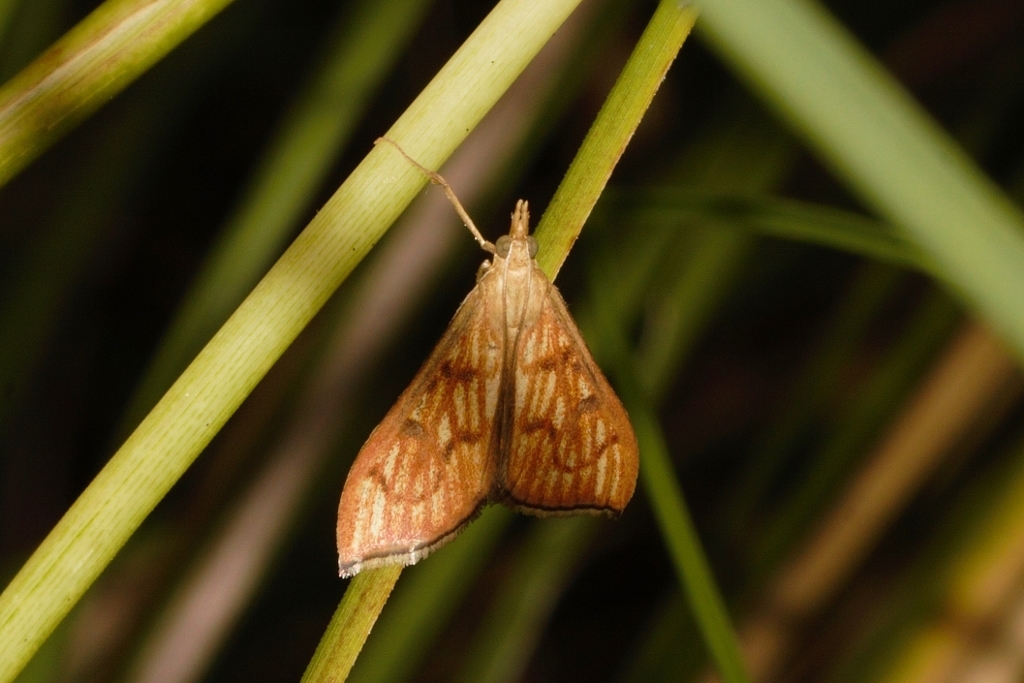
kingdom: Animalia
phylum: Arthropoda
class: Insecta
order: Lepidoptera
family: Crambidae
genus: Antigastra
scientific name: Antigastra catalaunalis
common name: Spanish dot
